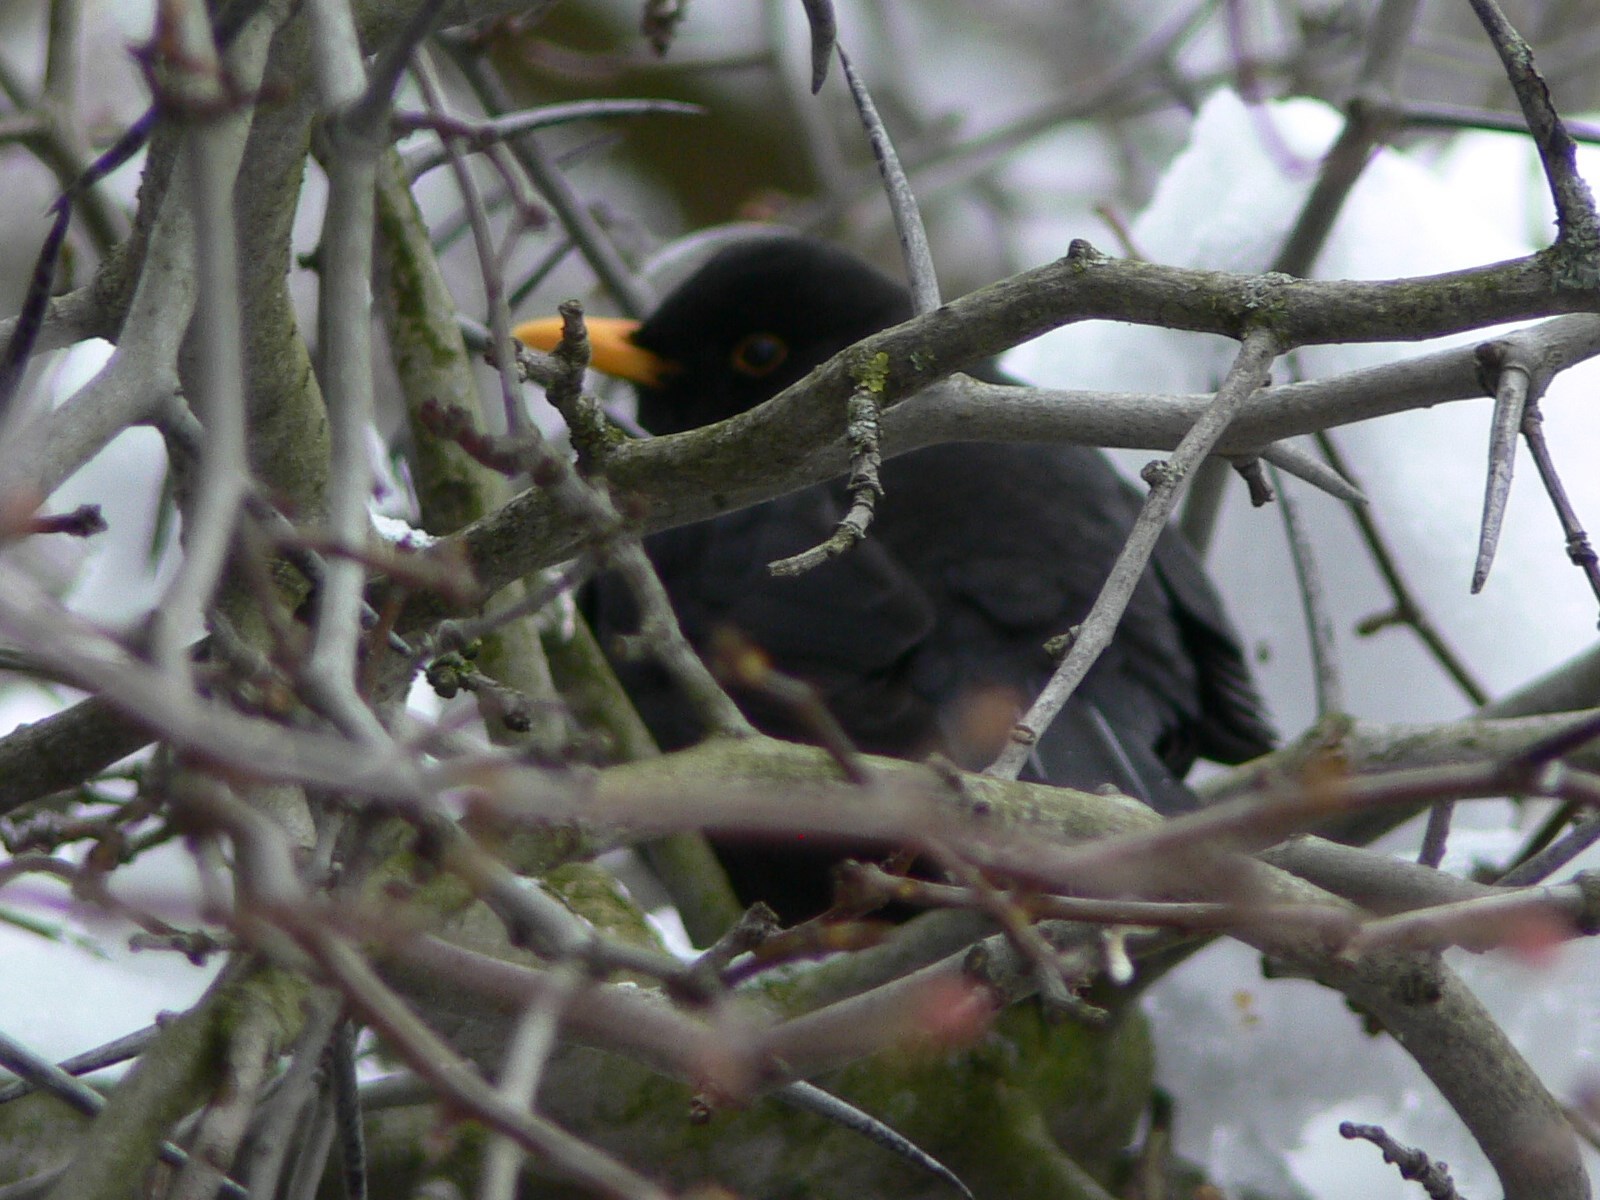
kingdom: Animalia
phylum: Chordata
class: Aves
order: Passeriformes
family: Turdidae
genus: Turdus
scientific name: Turdus merula
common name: Common blackbird
